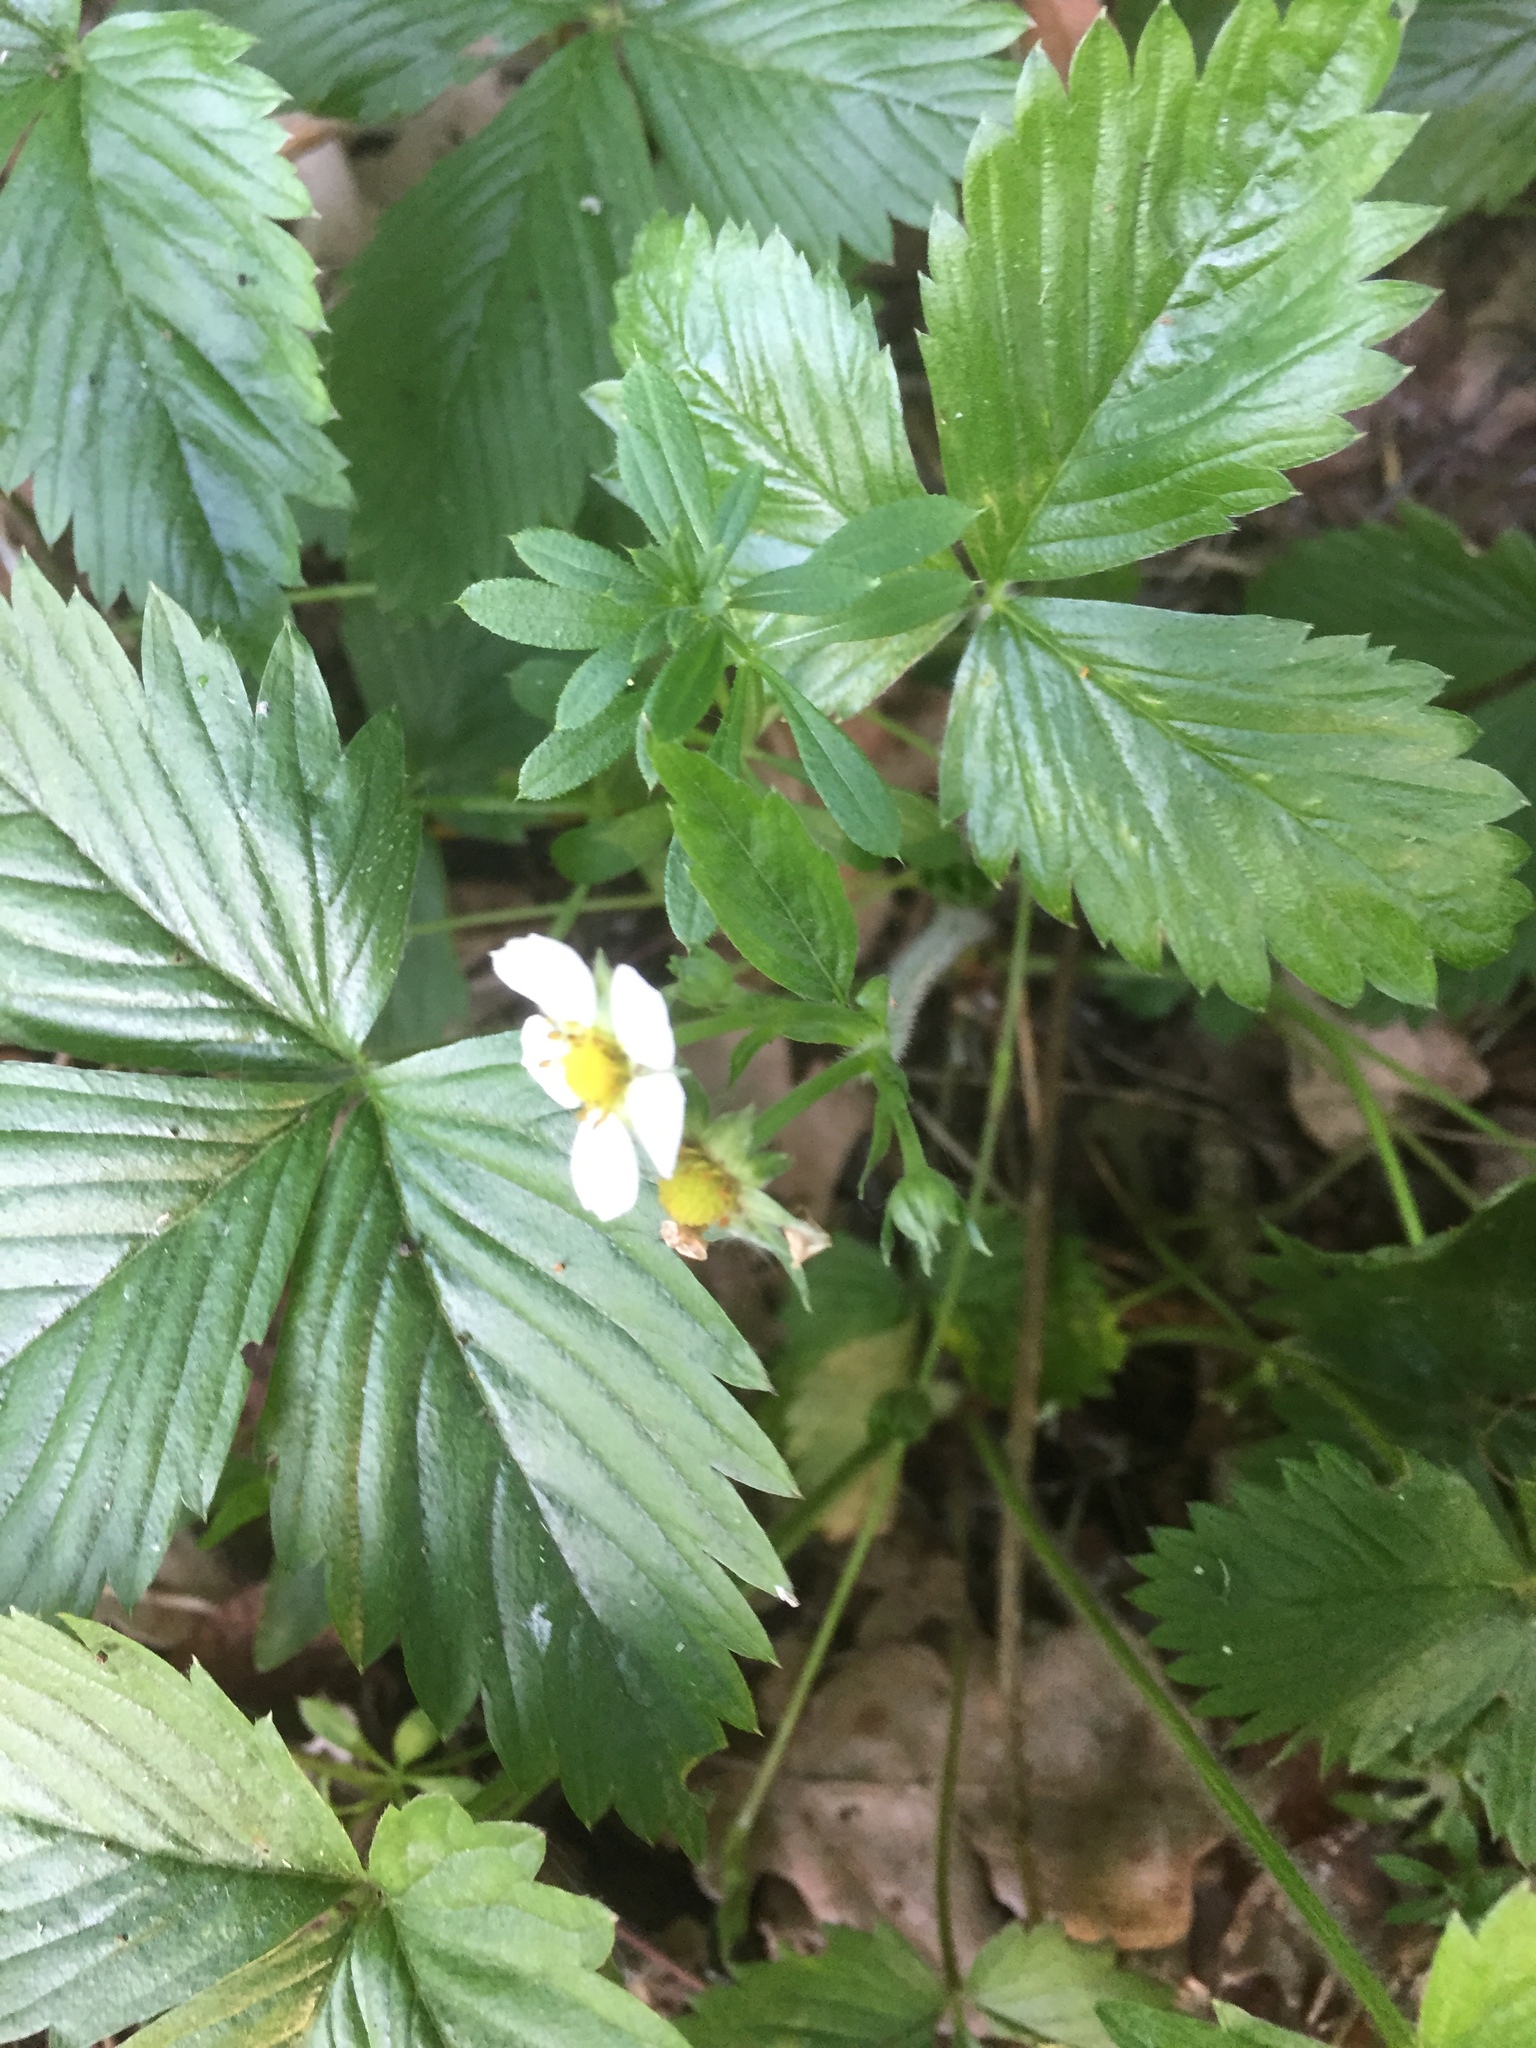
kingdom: Plantae
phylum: Tracheophyta
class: Magnoliopsida
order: Rosales
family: Rosaceae
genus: Fragaria
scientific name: Fragaria vesca
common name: Wild strawberry
